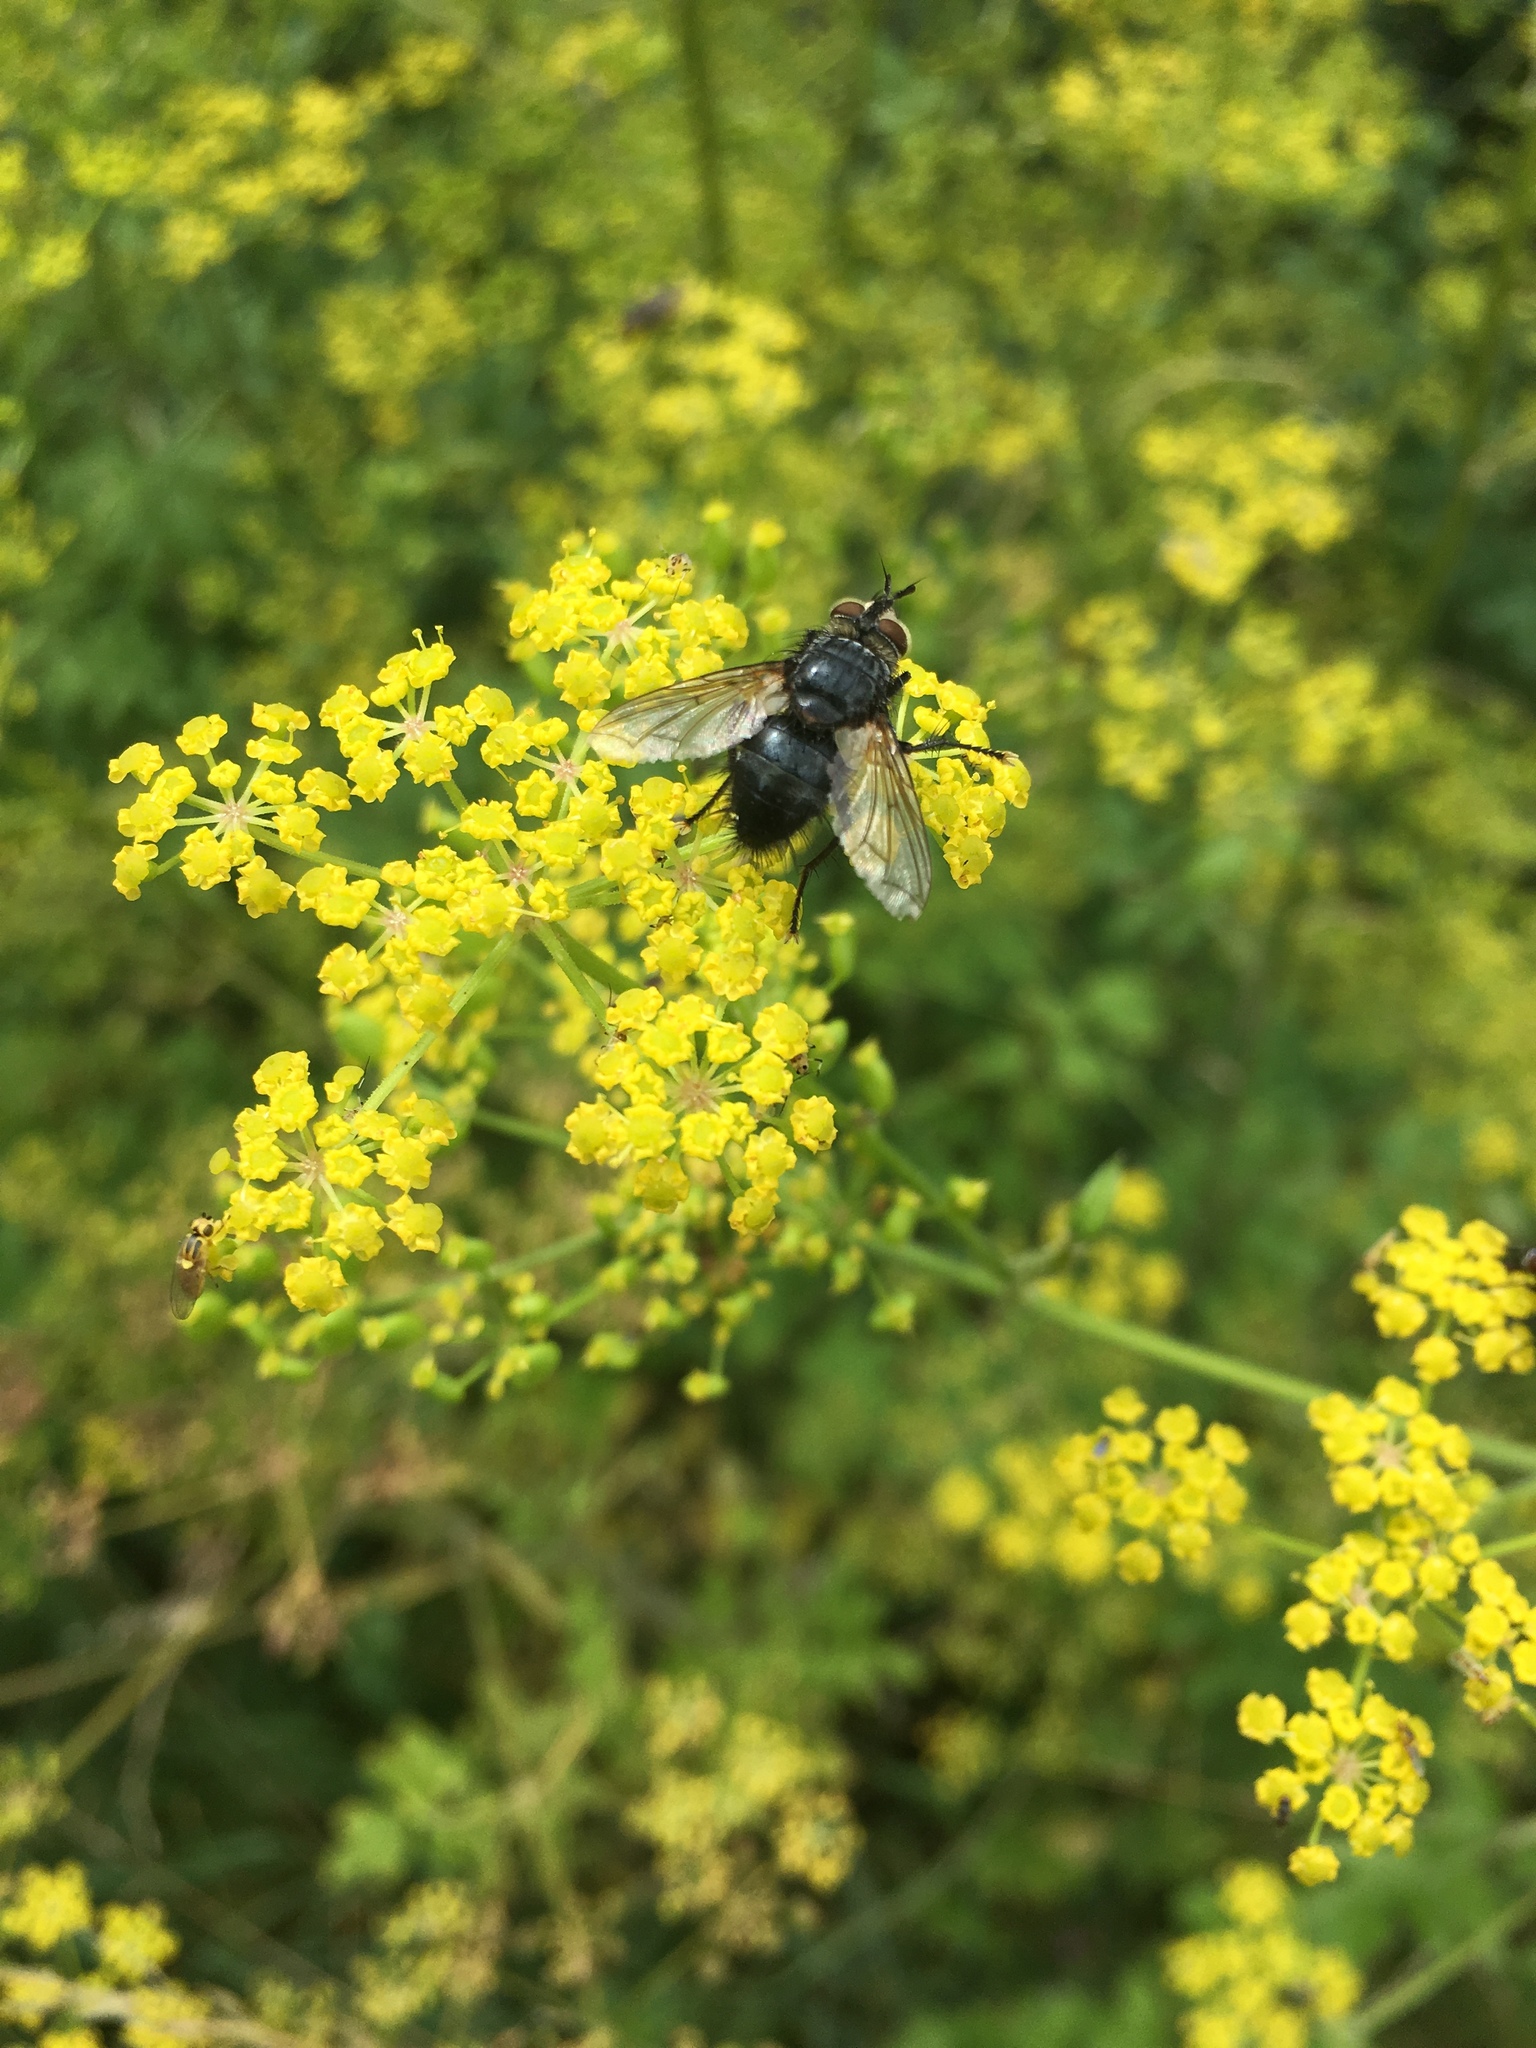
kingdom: Animalia
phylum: Arthropoda
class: Insecta
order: Diptera
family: Tachinidae
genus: Eurithia
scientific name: Eurithia anthophila
